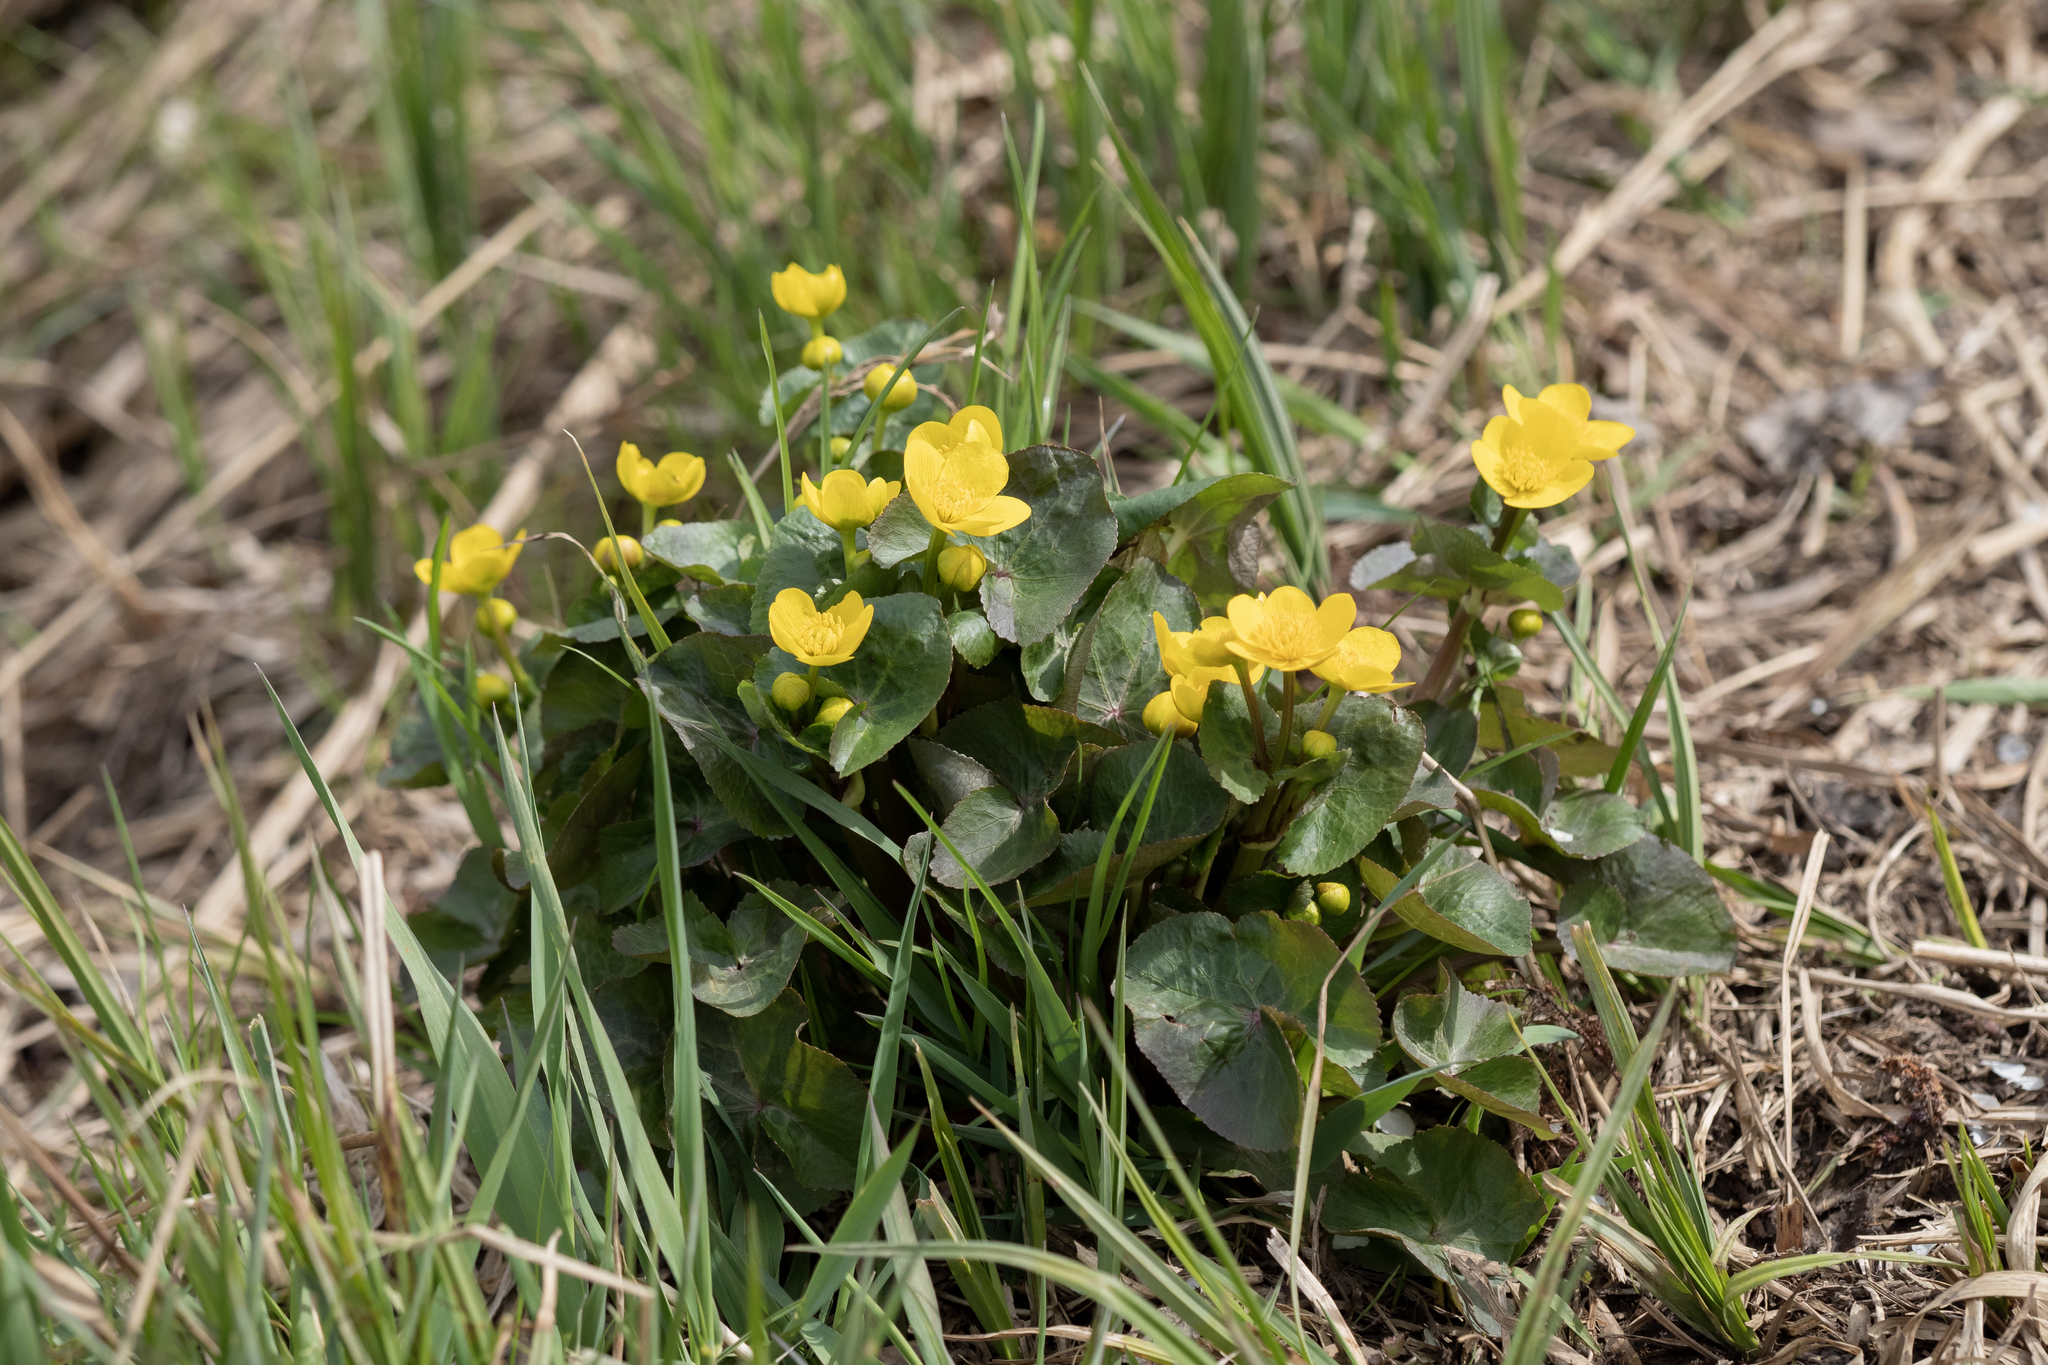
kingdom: Plantae
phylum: Tracheophyta
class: Magnoliopsida
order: Ranunculales
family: Ranunculaceae
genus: Caltha
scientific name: Caltha palustris
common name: Marsh marigold
